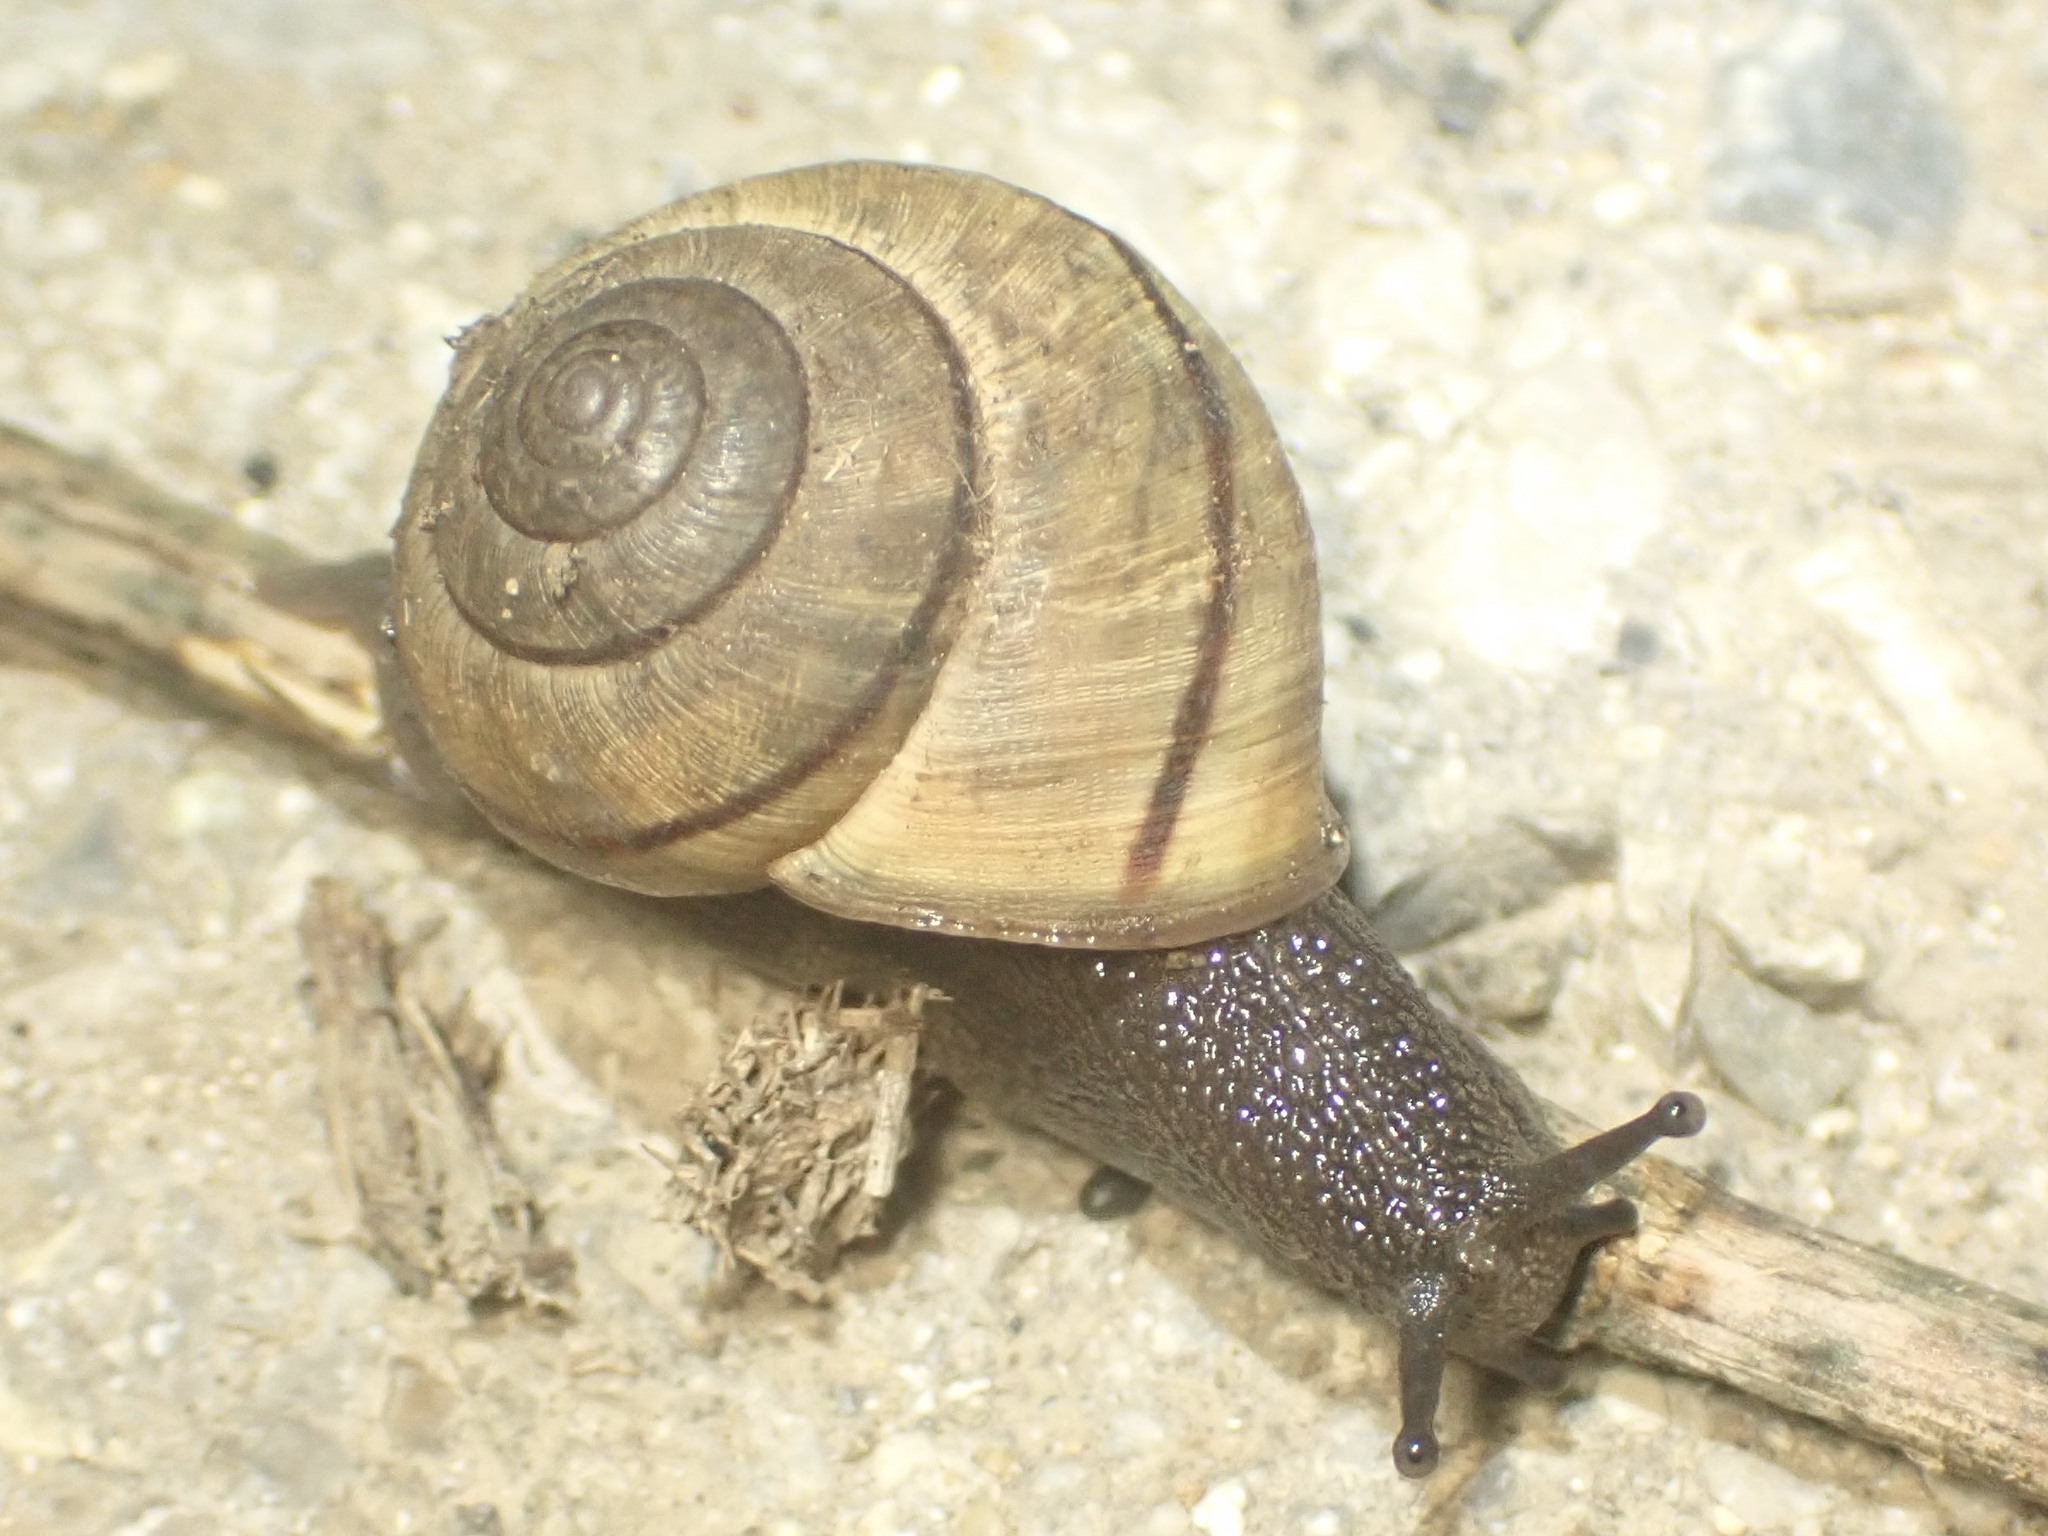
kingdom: Animalia
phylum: Mollusca
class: Gastropoda
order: Stylommatophora
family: Xanthonychidae
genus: Helminthoglypta
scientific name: Helminthoglypta nickliniana
